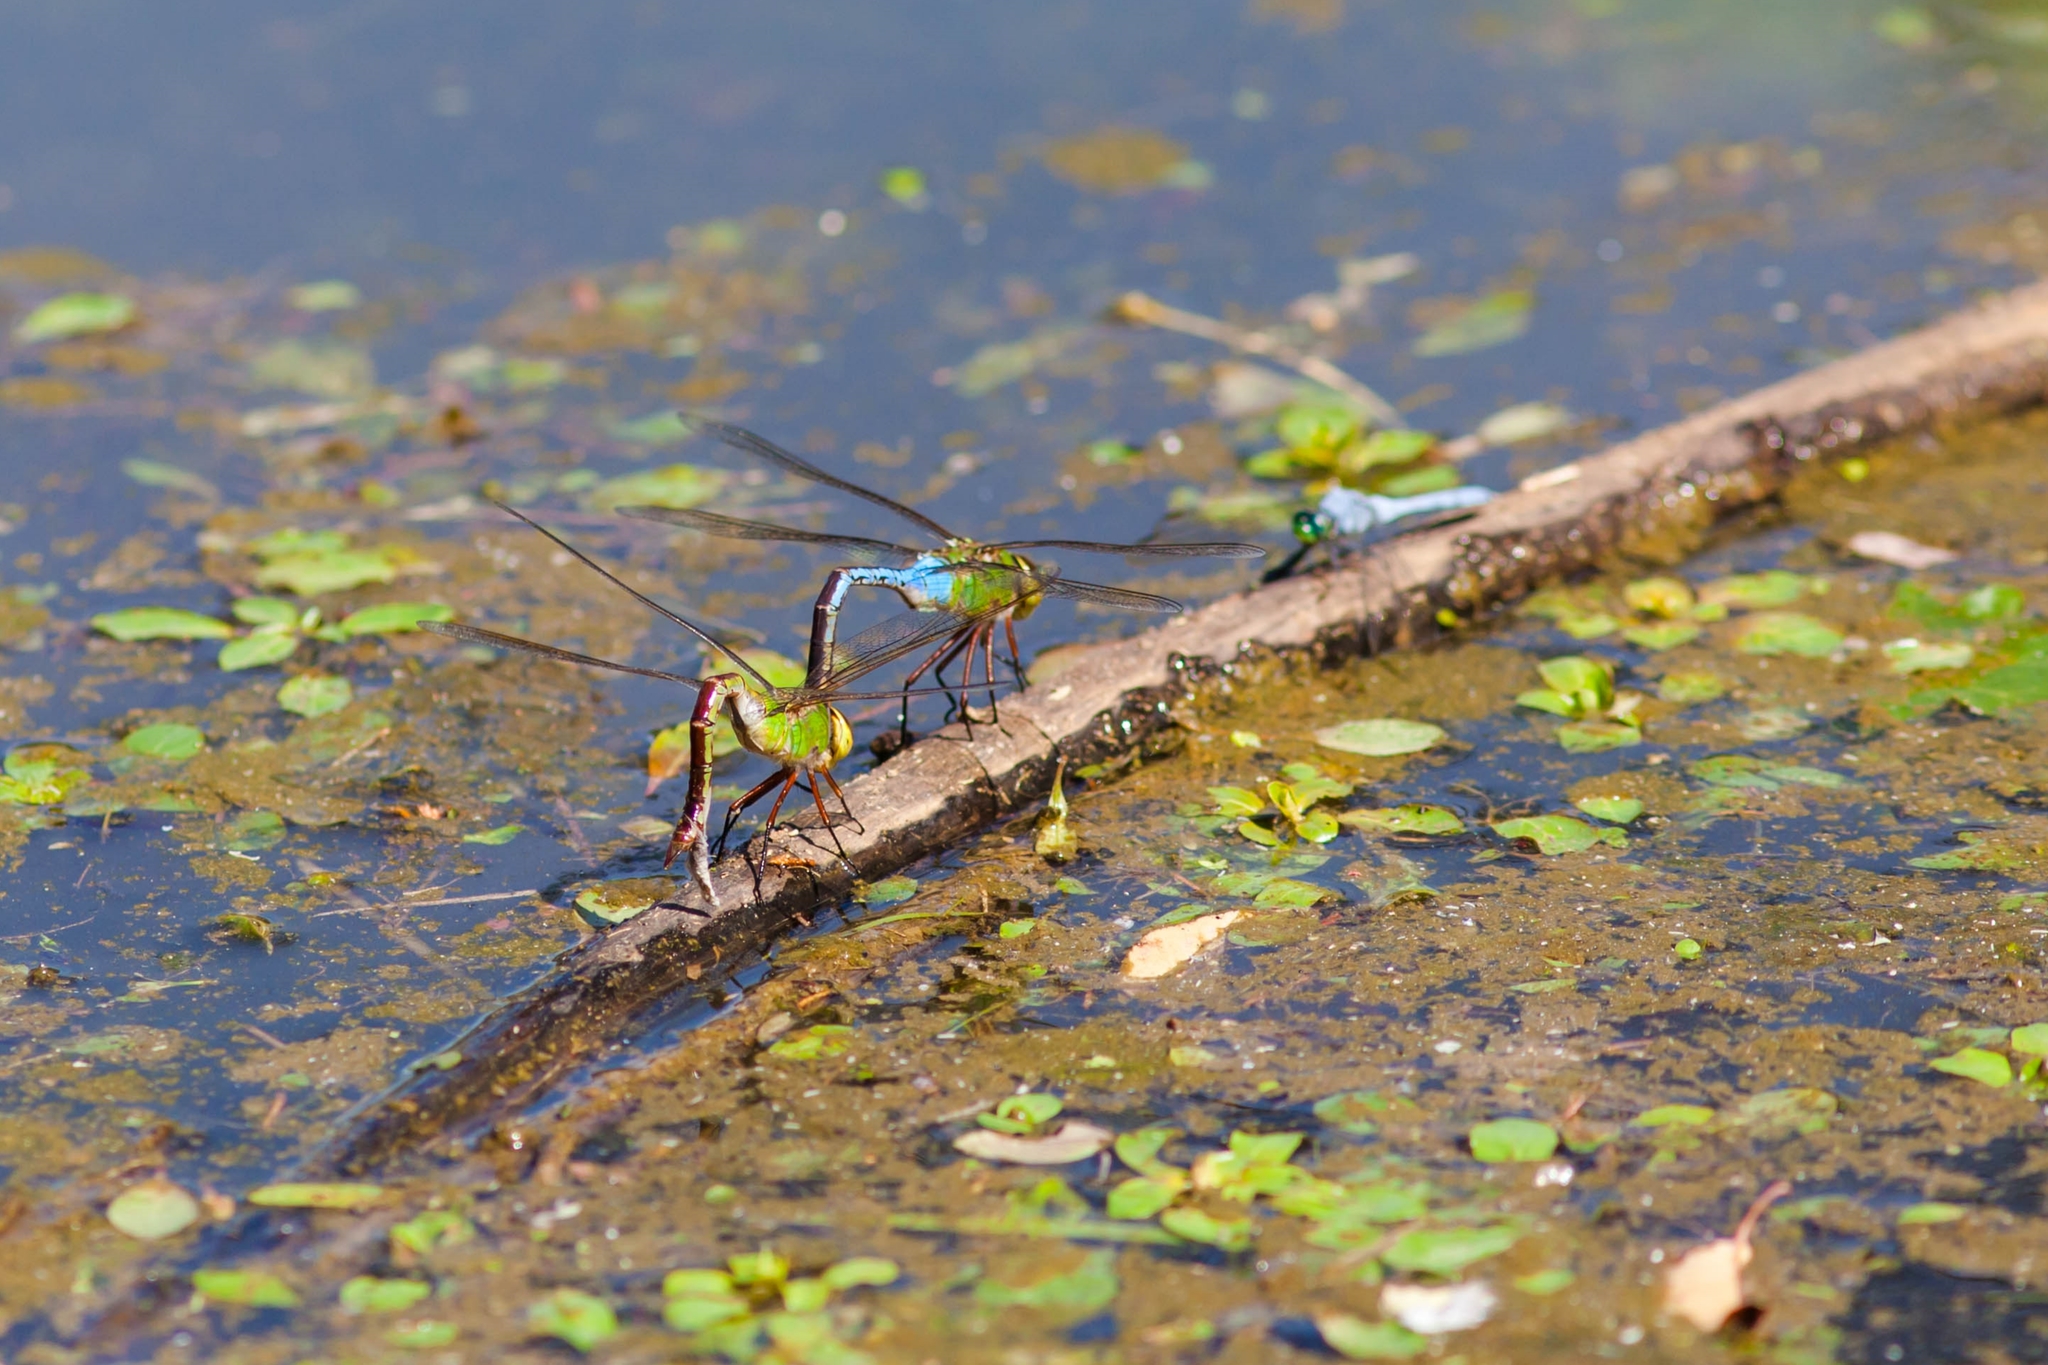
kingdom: Animalia
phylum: Arthropoda
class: Insecta
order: Odonata
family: Aeshnidae
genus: Anax
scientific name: Anax junius
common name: Common green darner
